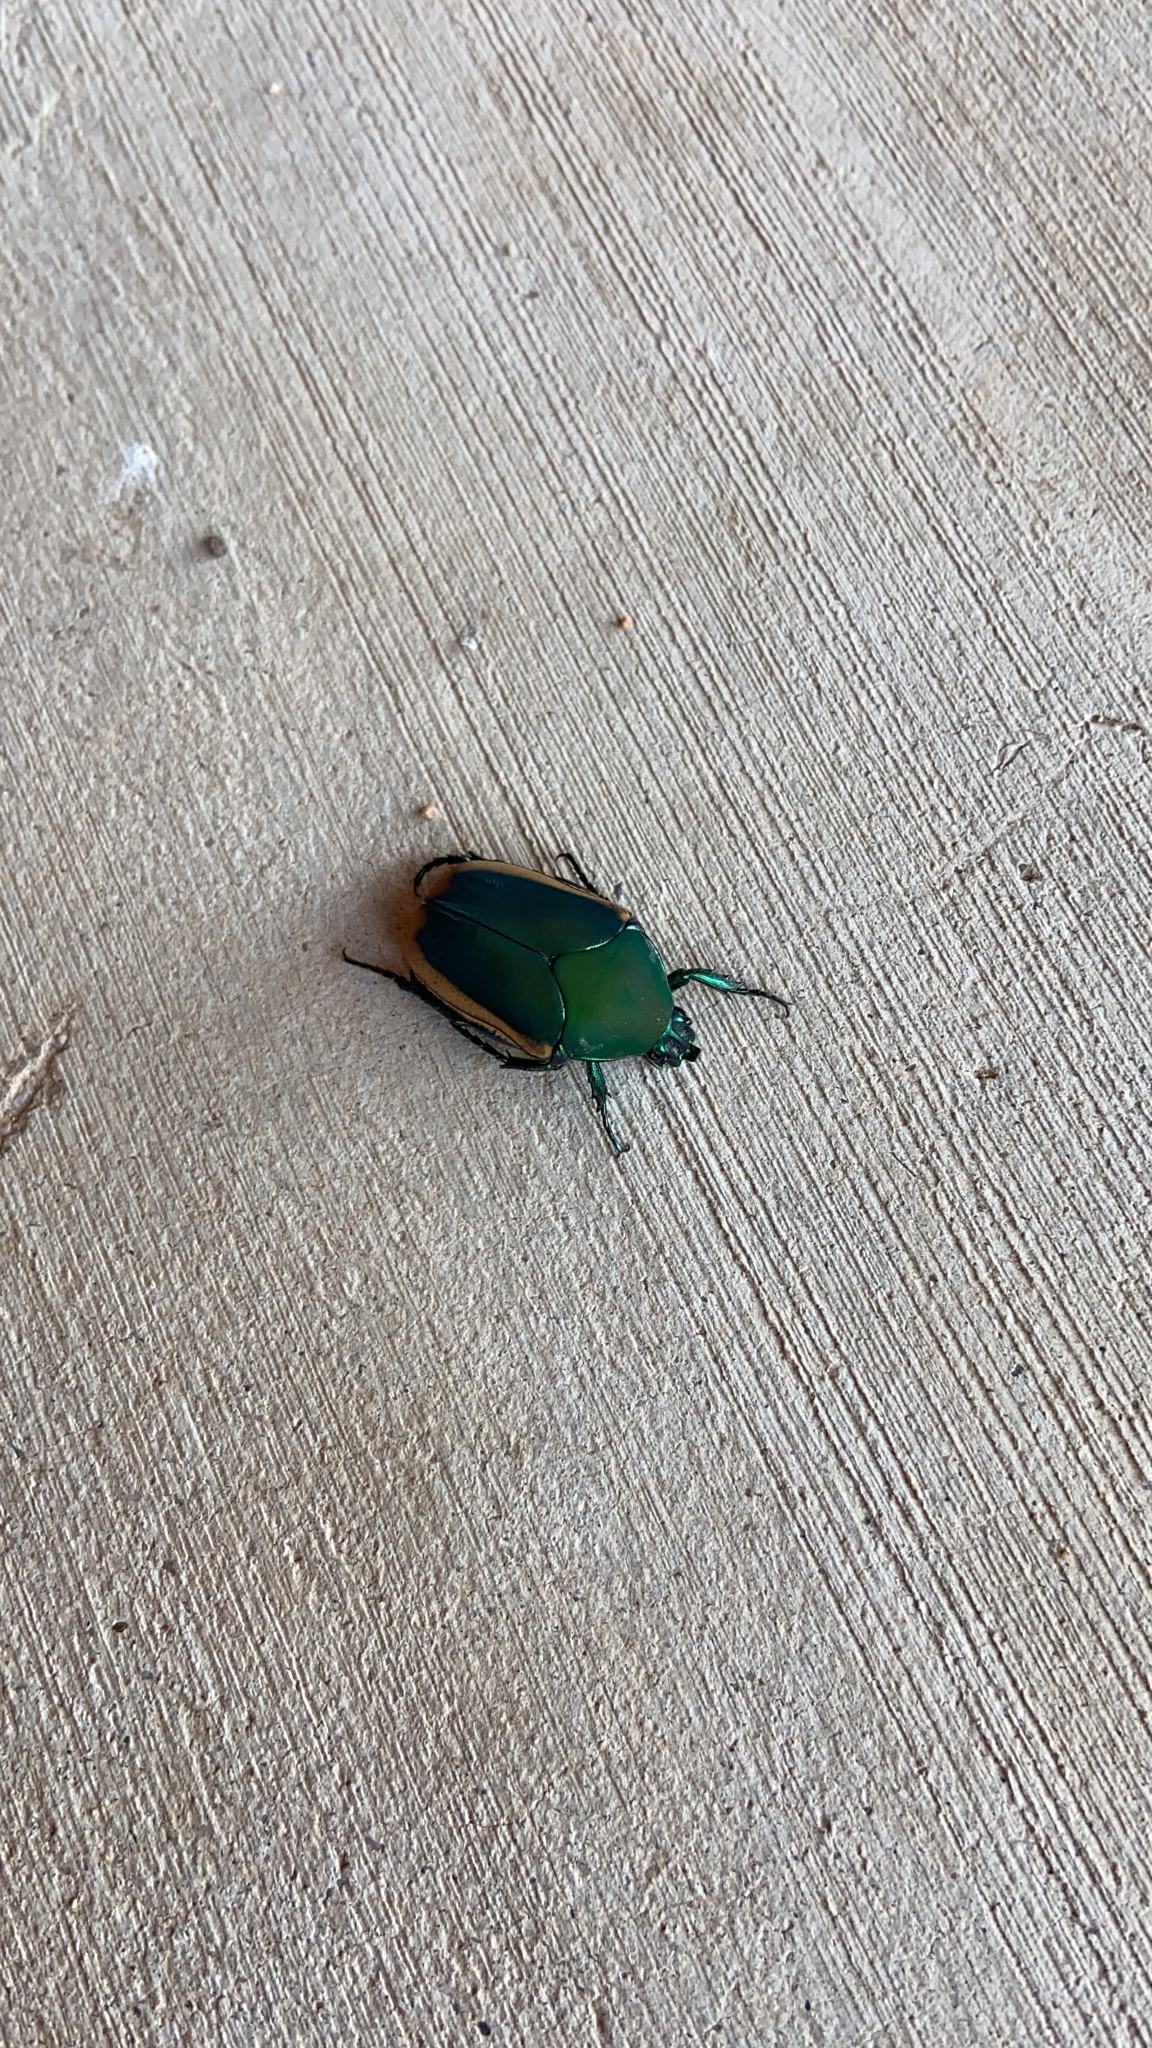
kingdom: Animalia
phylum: Arthropoda
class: Insecta
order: Coleoptera
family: Scarabaeidae
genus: Cotinis
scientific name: Cotinis mutabilis
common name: Figeater beetle
